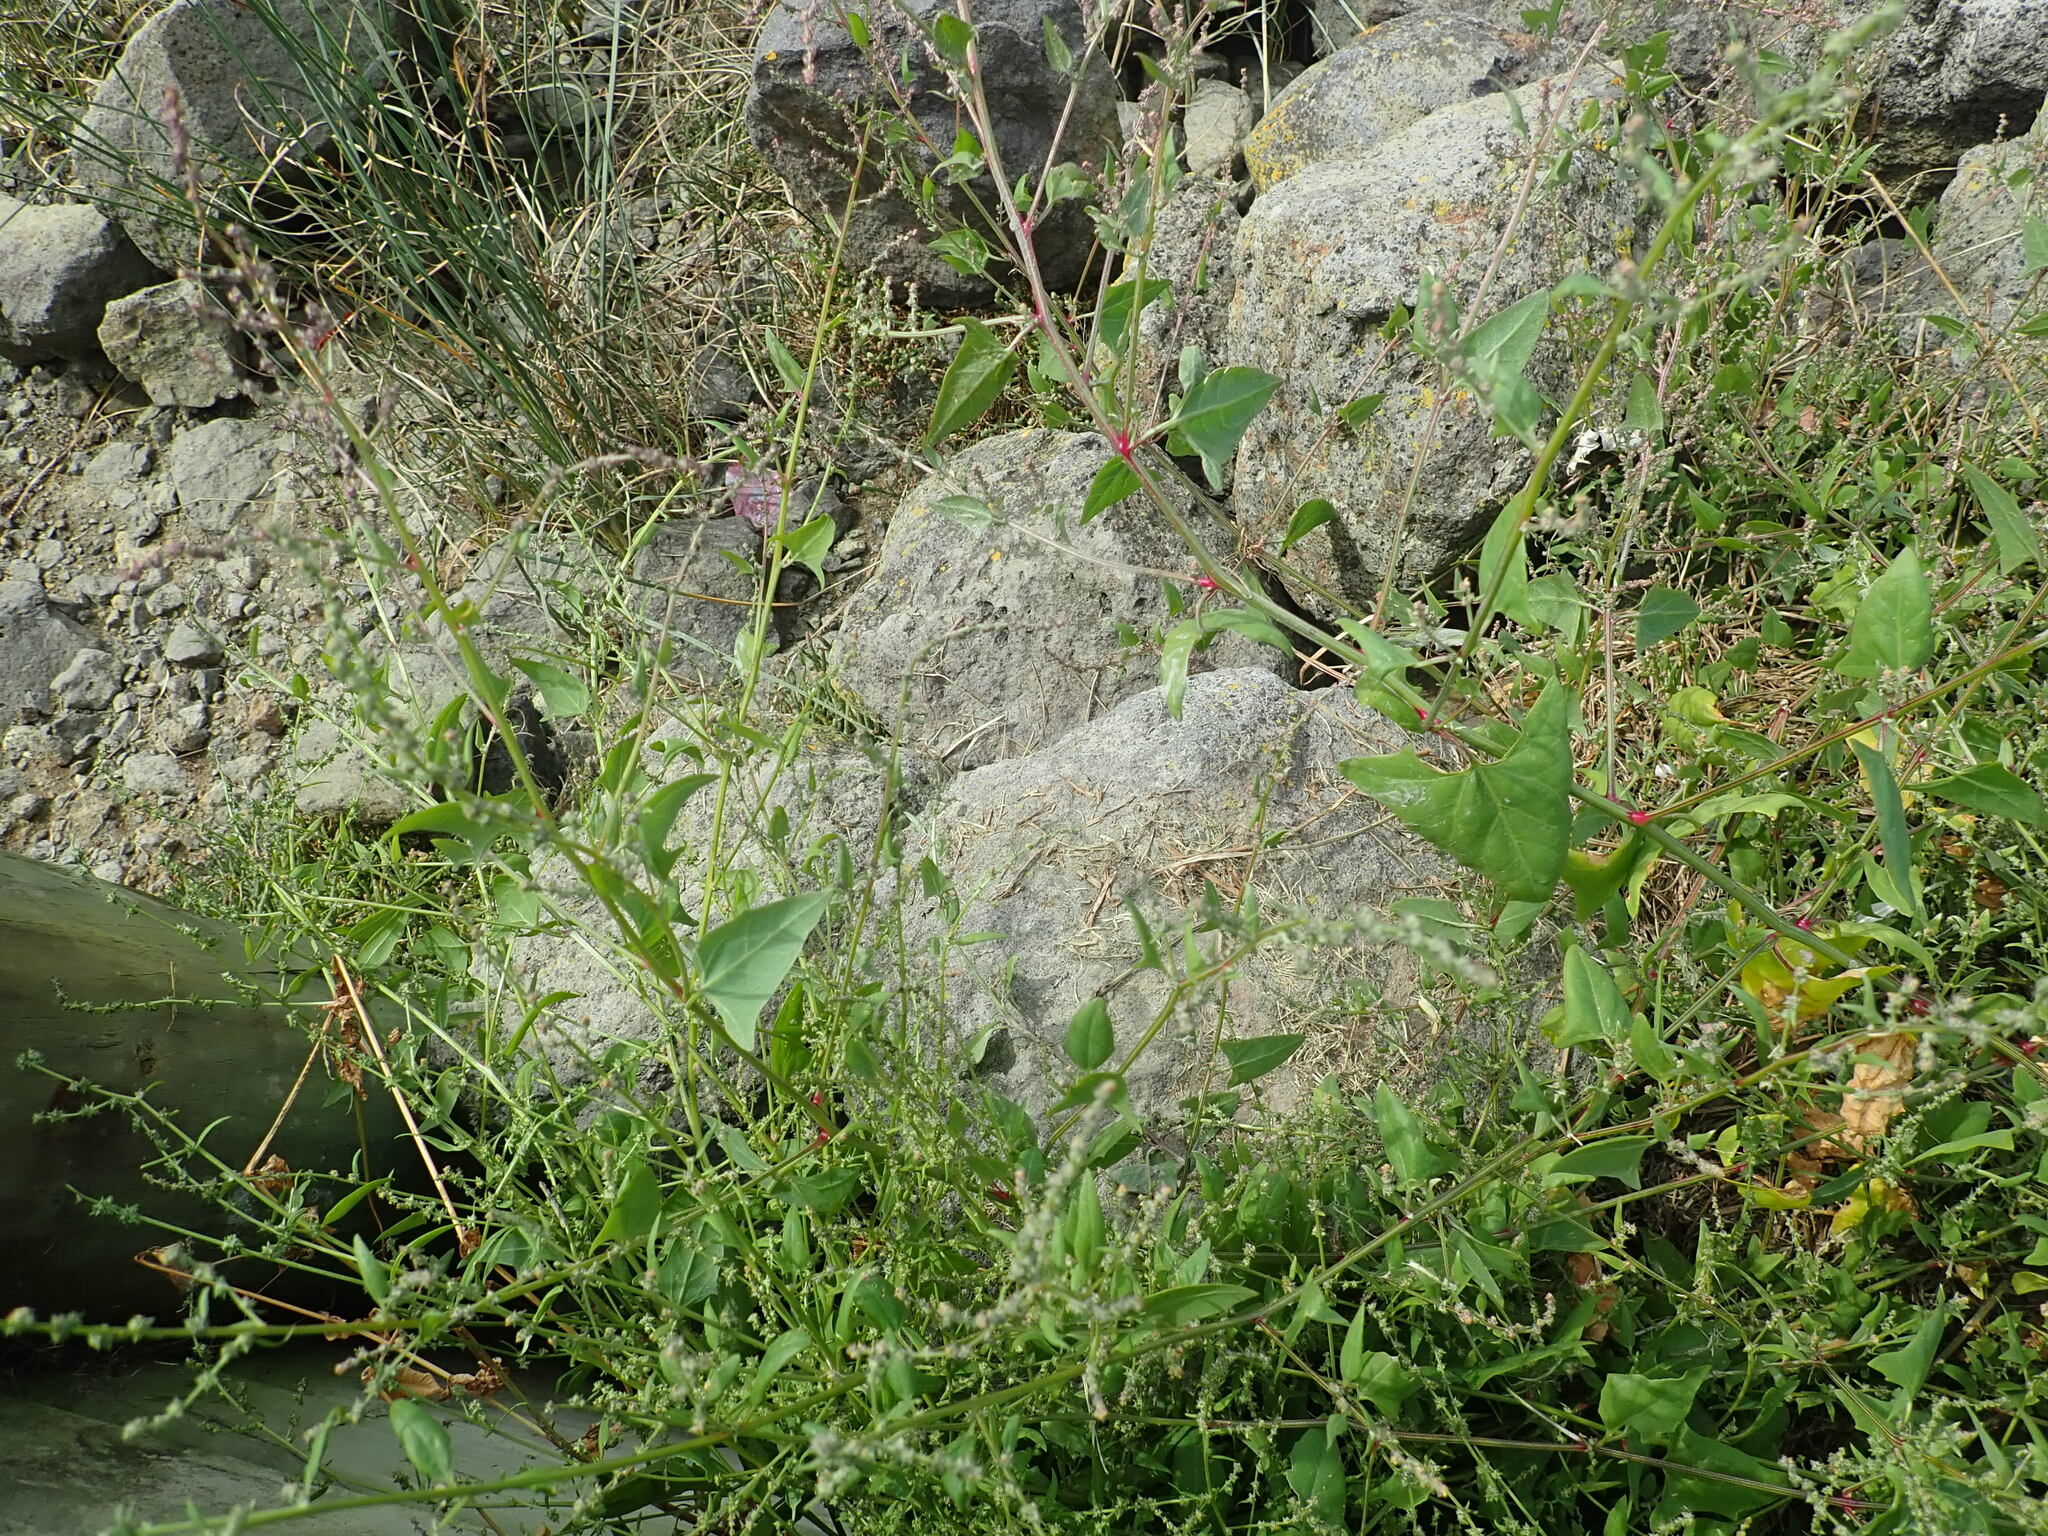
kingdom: Plantae
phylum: Tracheophyta
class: Magnoliopsida
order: Caryophyllales
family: Amaranthaceae
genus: Atriplex
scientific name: Atriplex prostrata
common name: Spear-leaved orache
